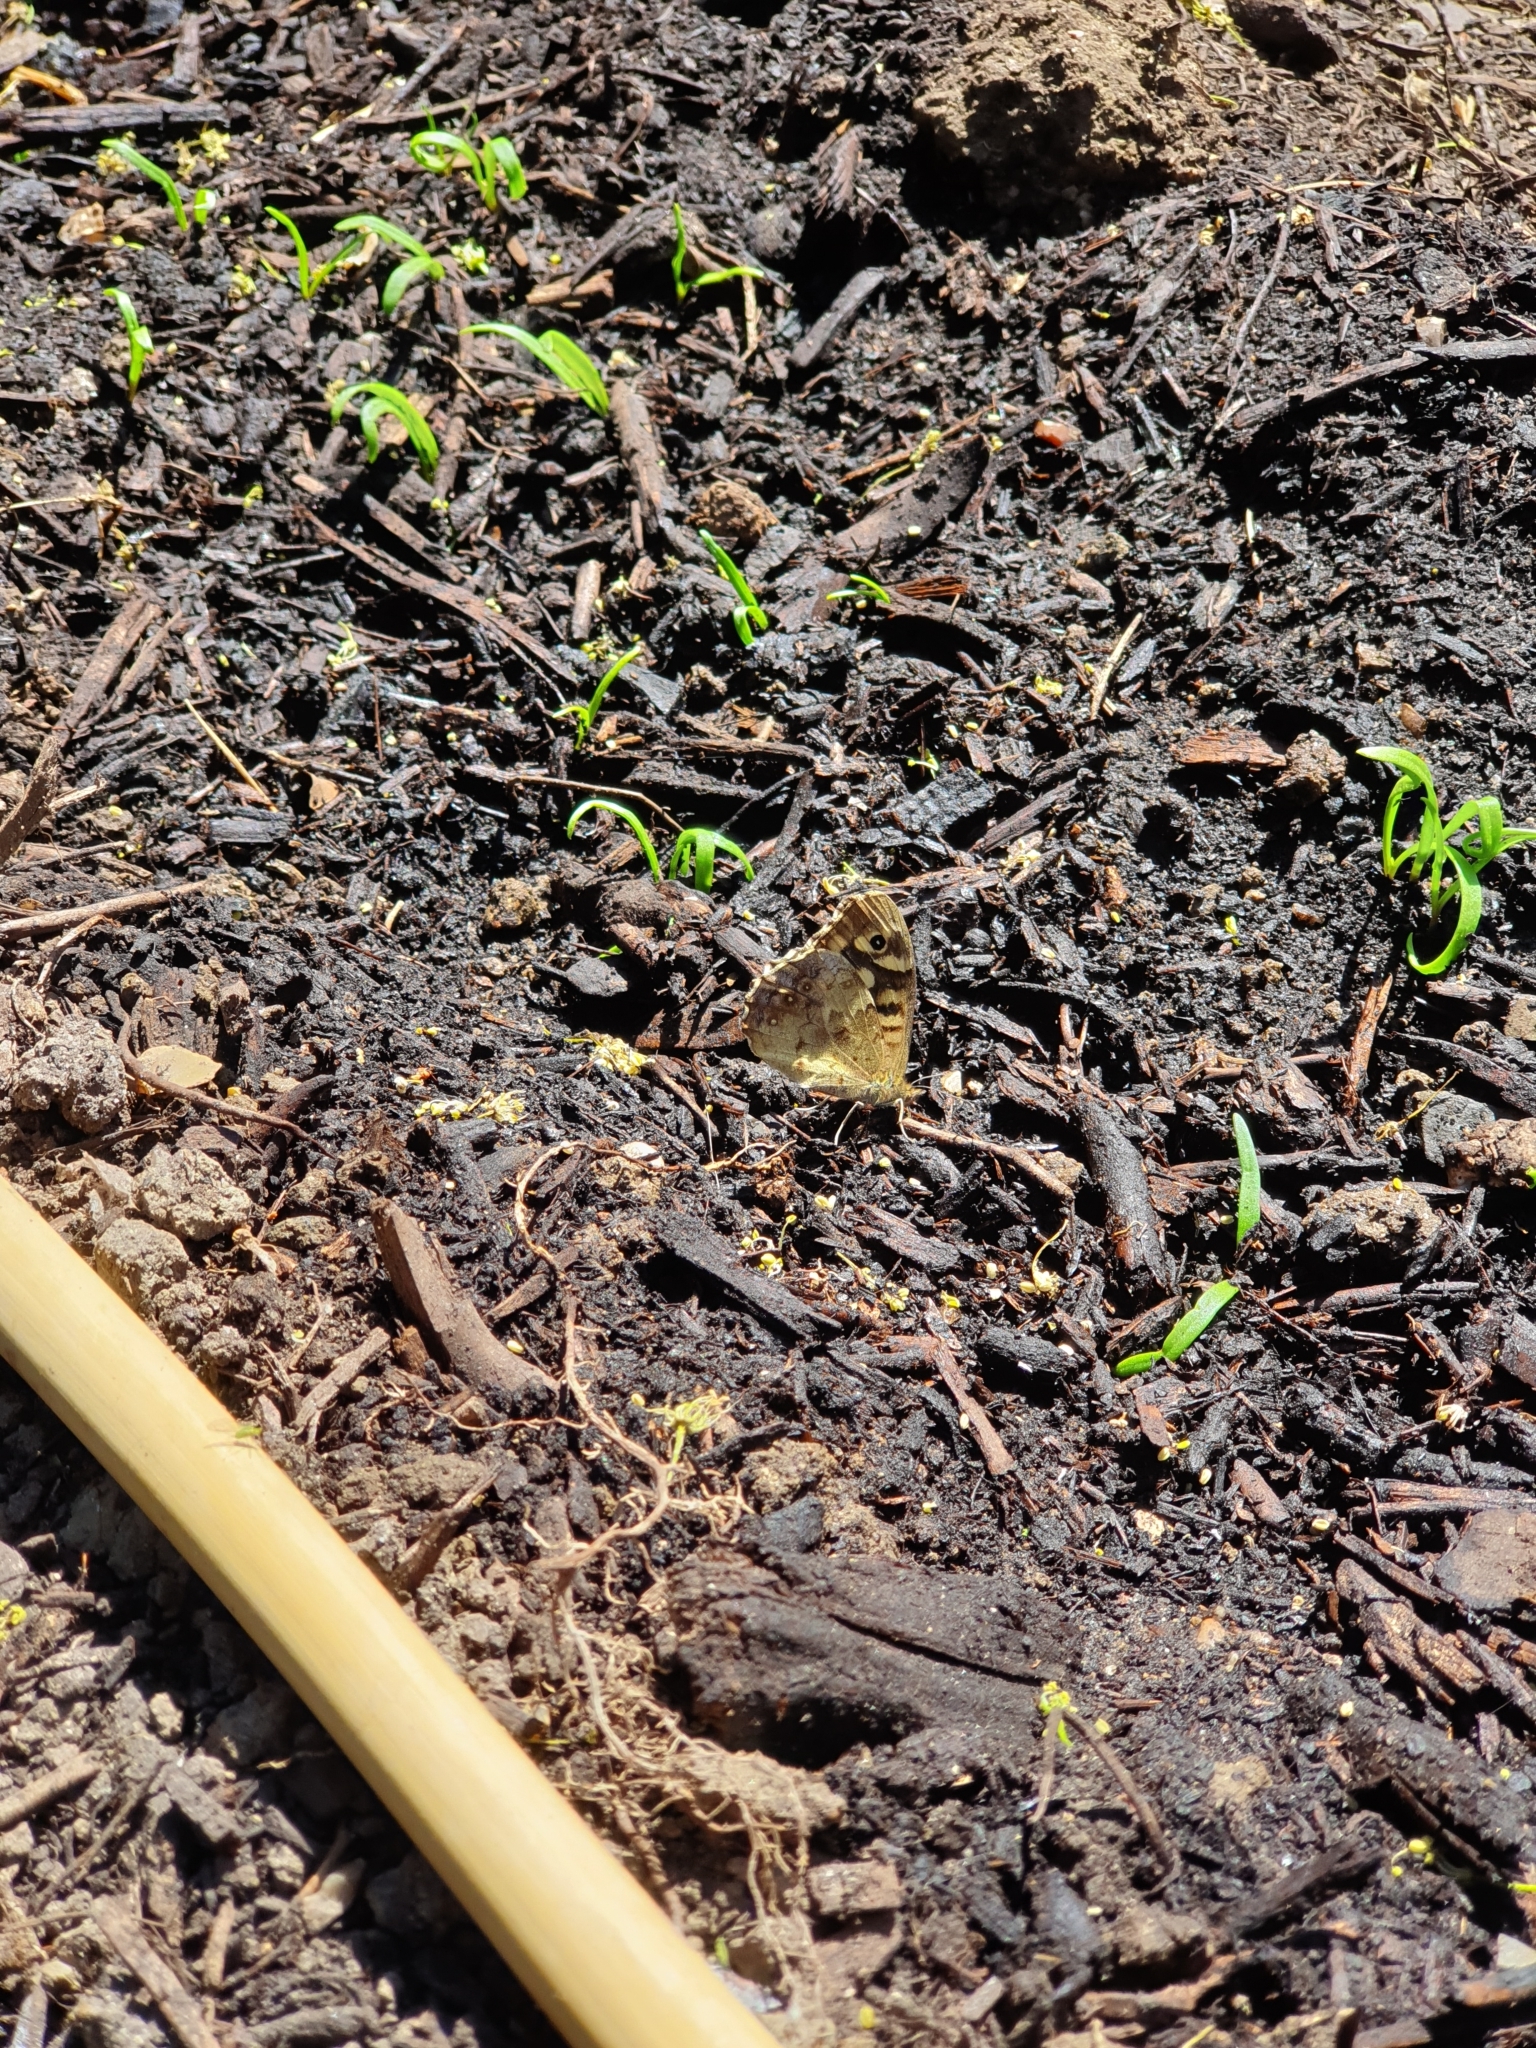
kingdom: Animalia
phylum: Arthropoda
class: Insecta
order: Lepidoptera
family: Nymphalidae
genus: Pararge
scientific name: Pararge aegeria
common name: Speckled wood
